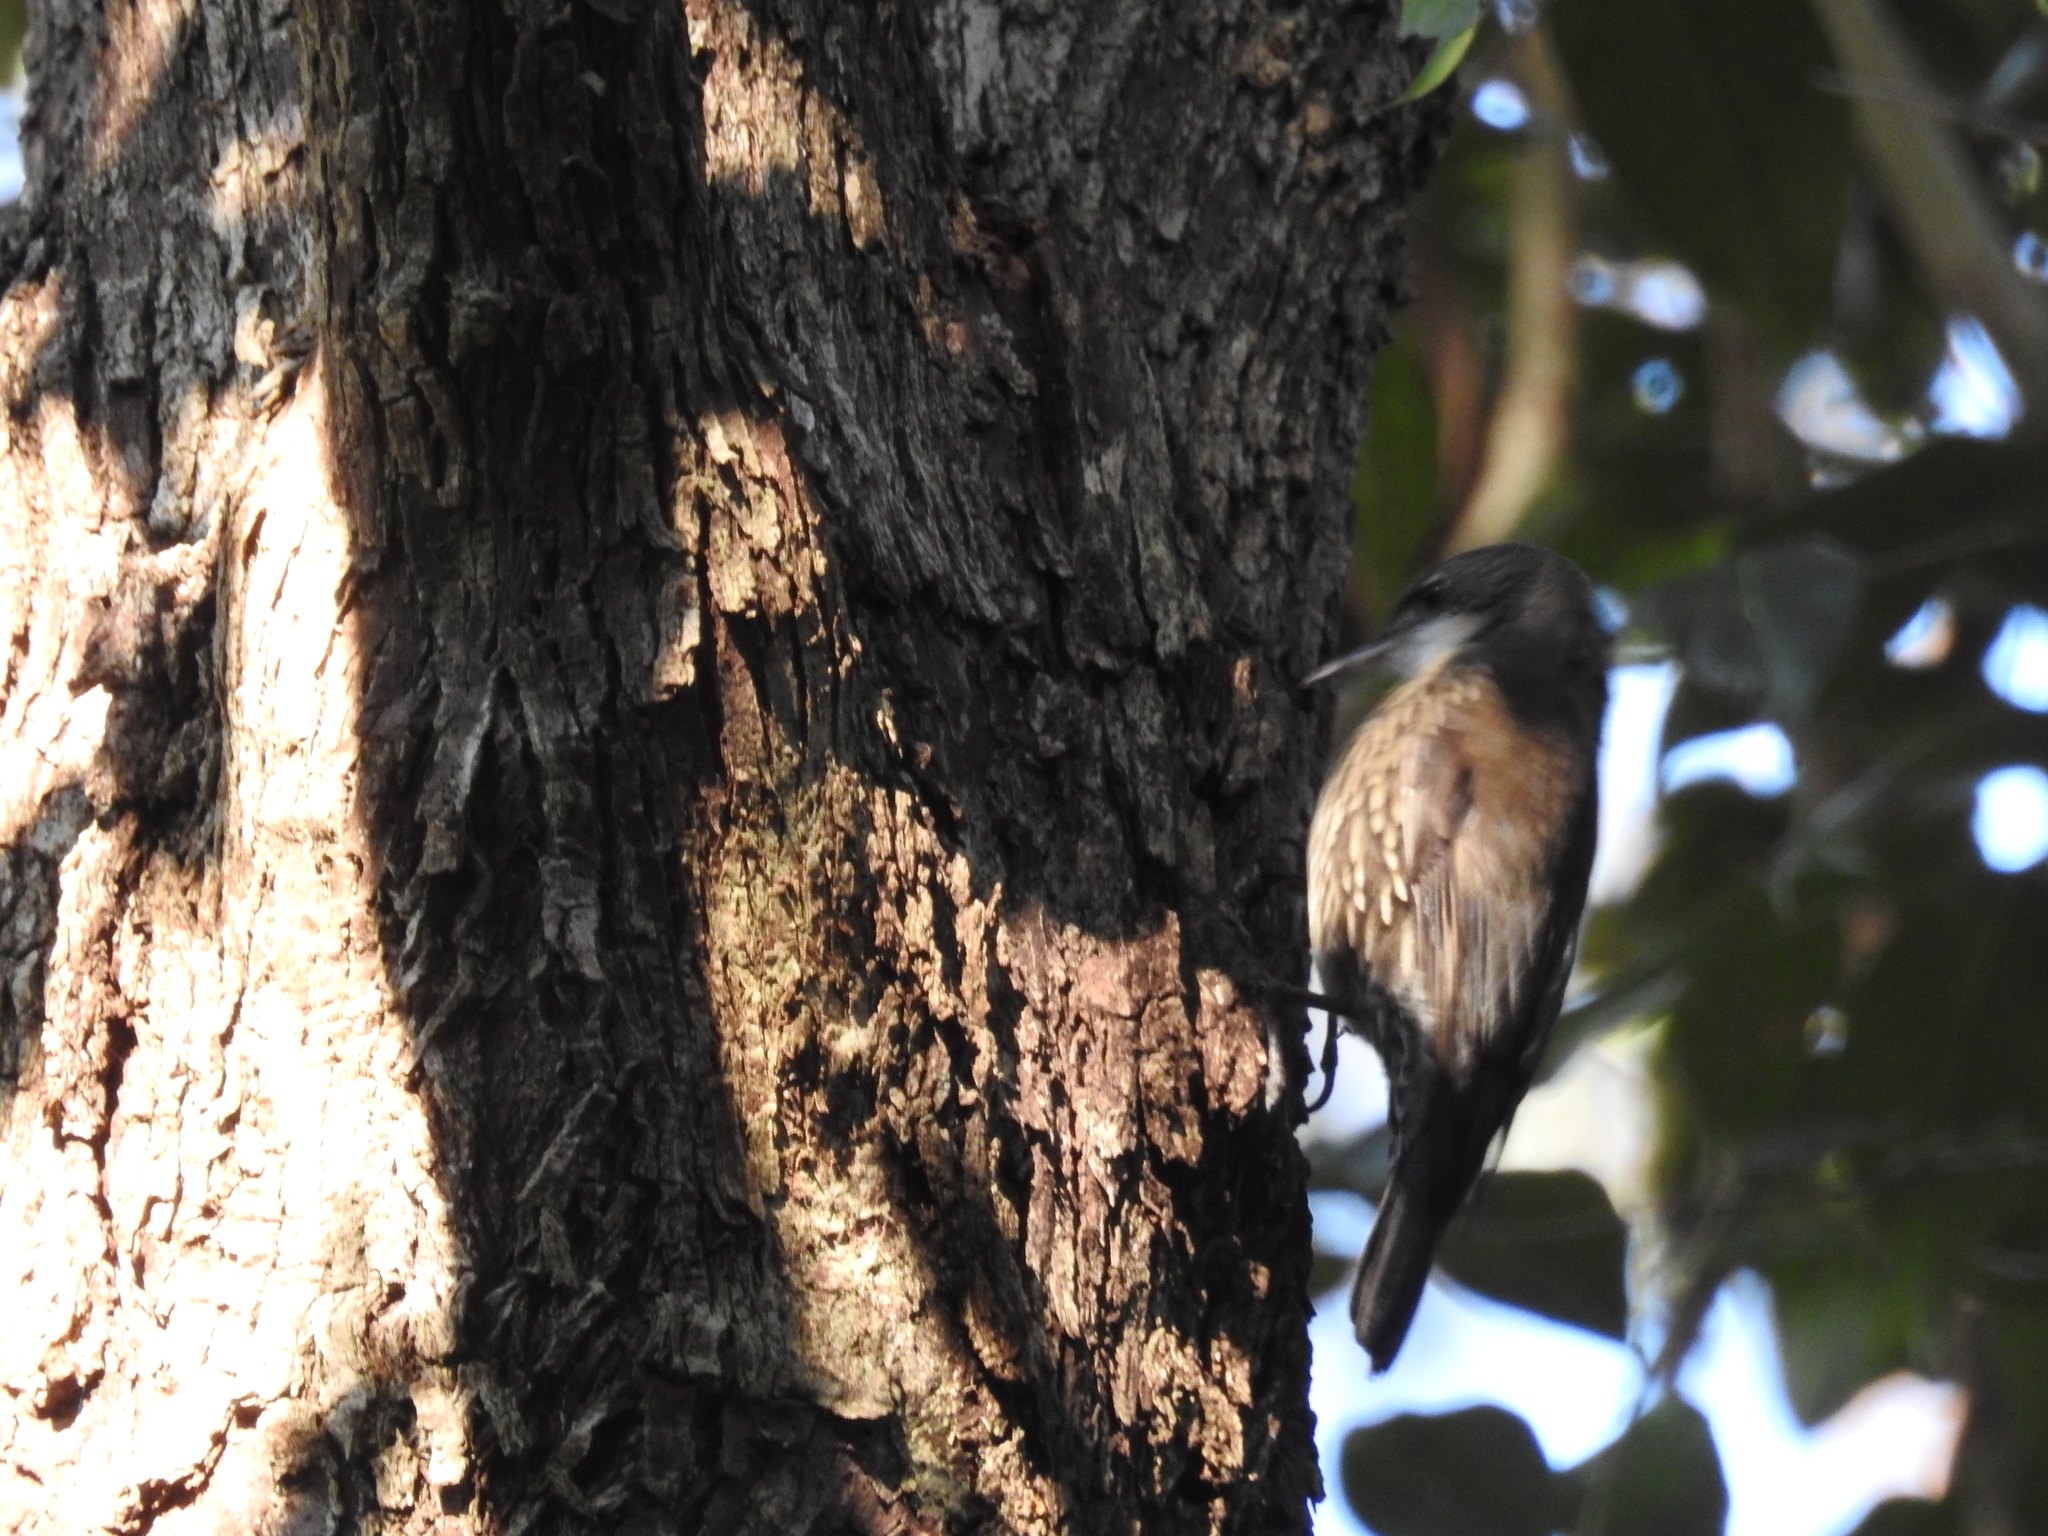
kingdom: Animalia
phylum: Chordata
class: Aves
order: Passeriformes
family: Climacteridae
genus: Cormobates
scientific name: Cormobates leucophaea
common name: White-throated treecreeper
